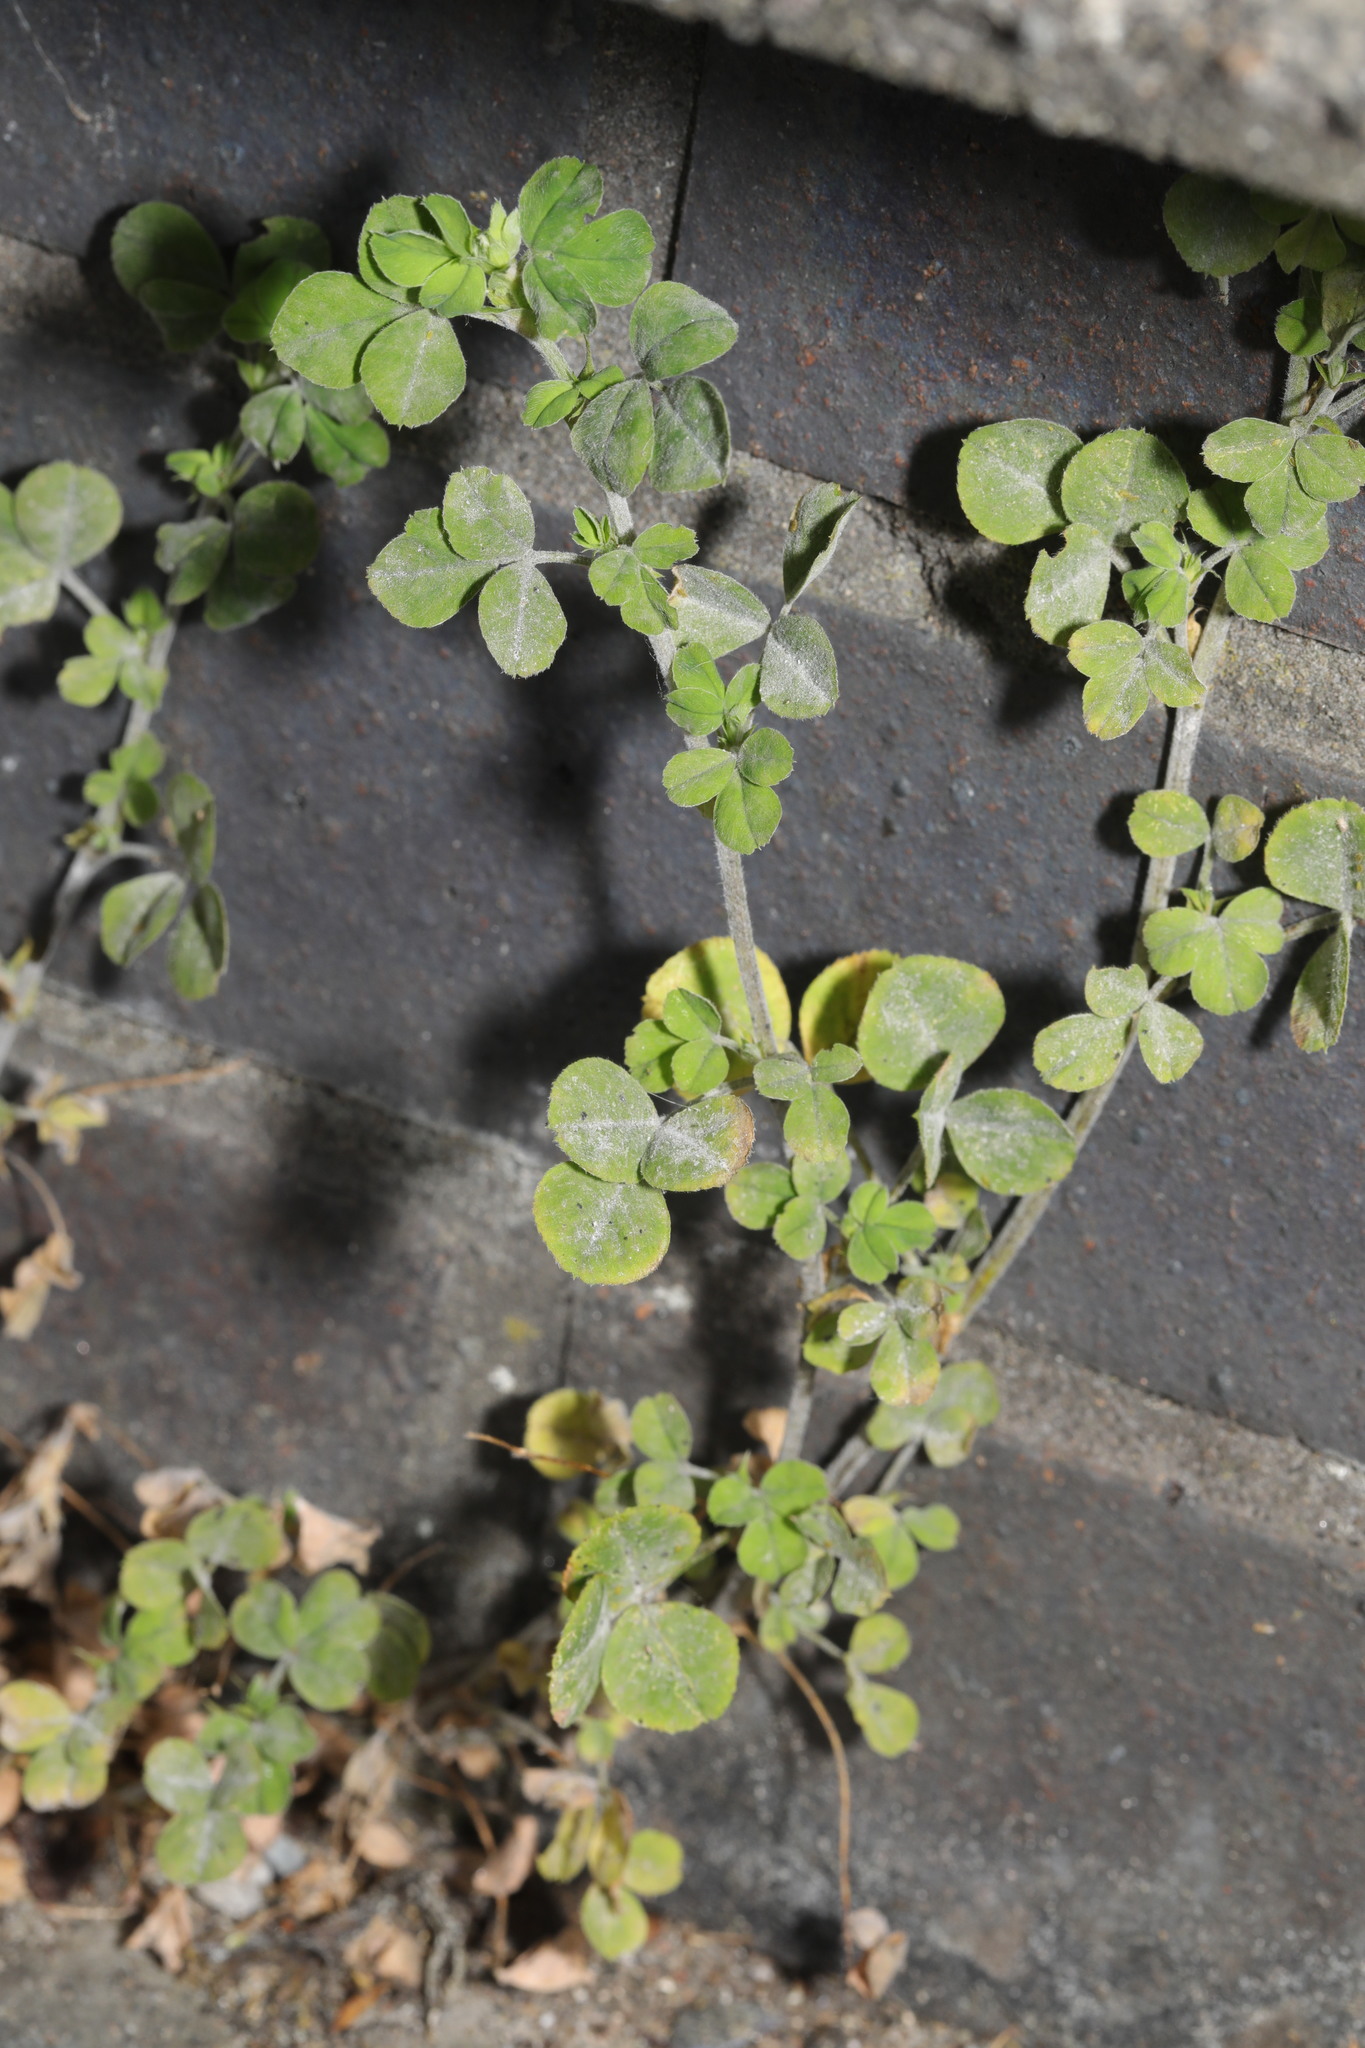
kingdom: Plantae
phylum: Tracheophyta
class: Magnoliopsida
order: Fabales
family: Fabaceae
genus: Medicago
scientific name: Medicago lupulina
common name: Black medick
